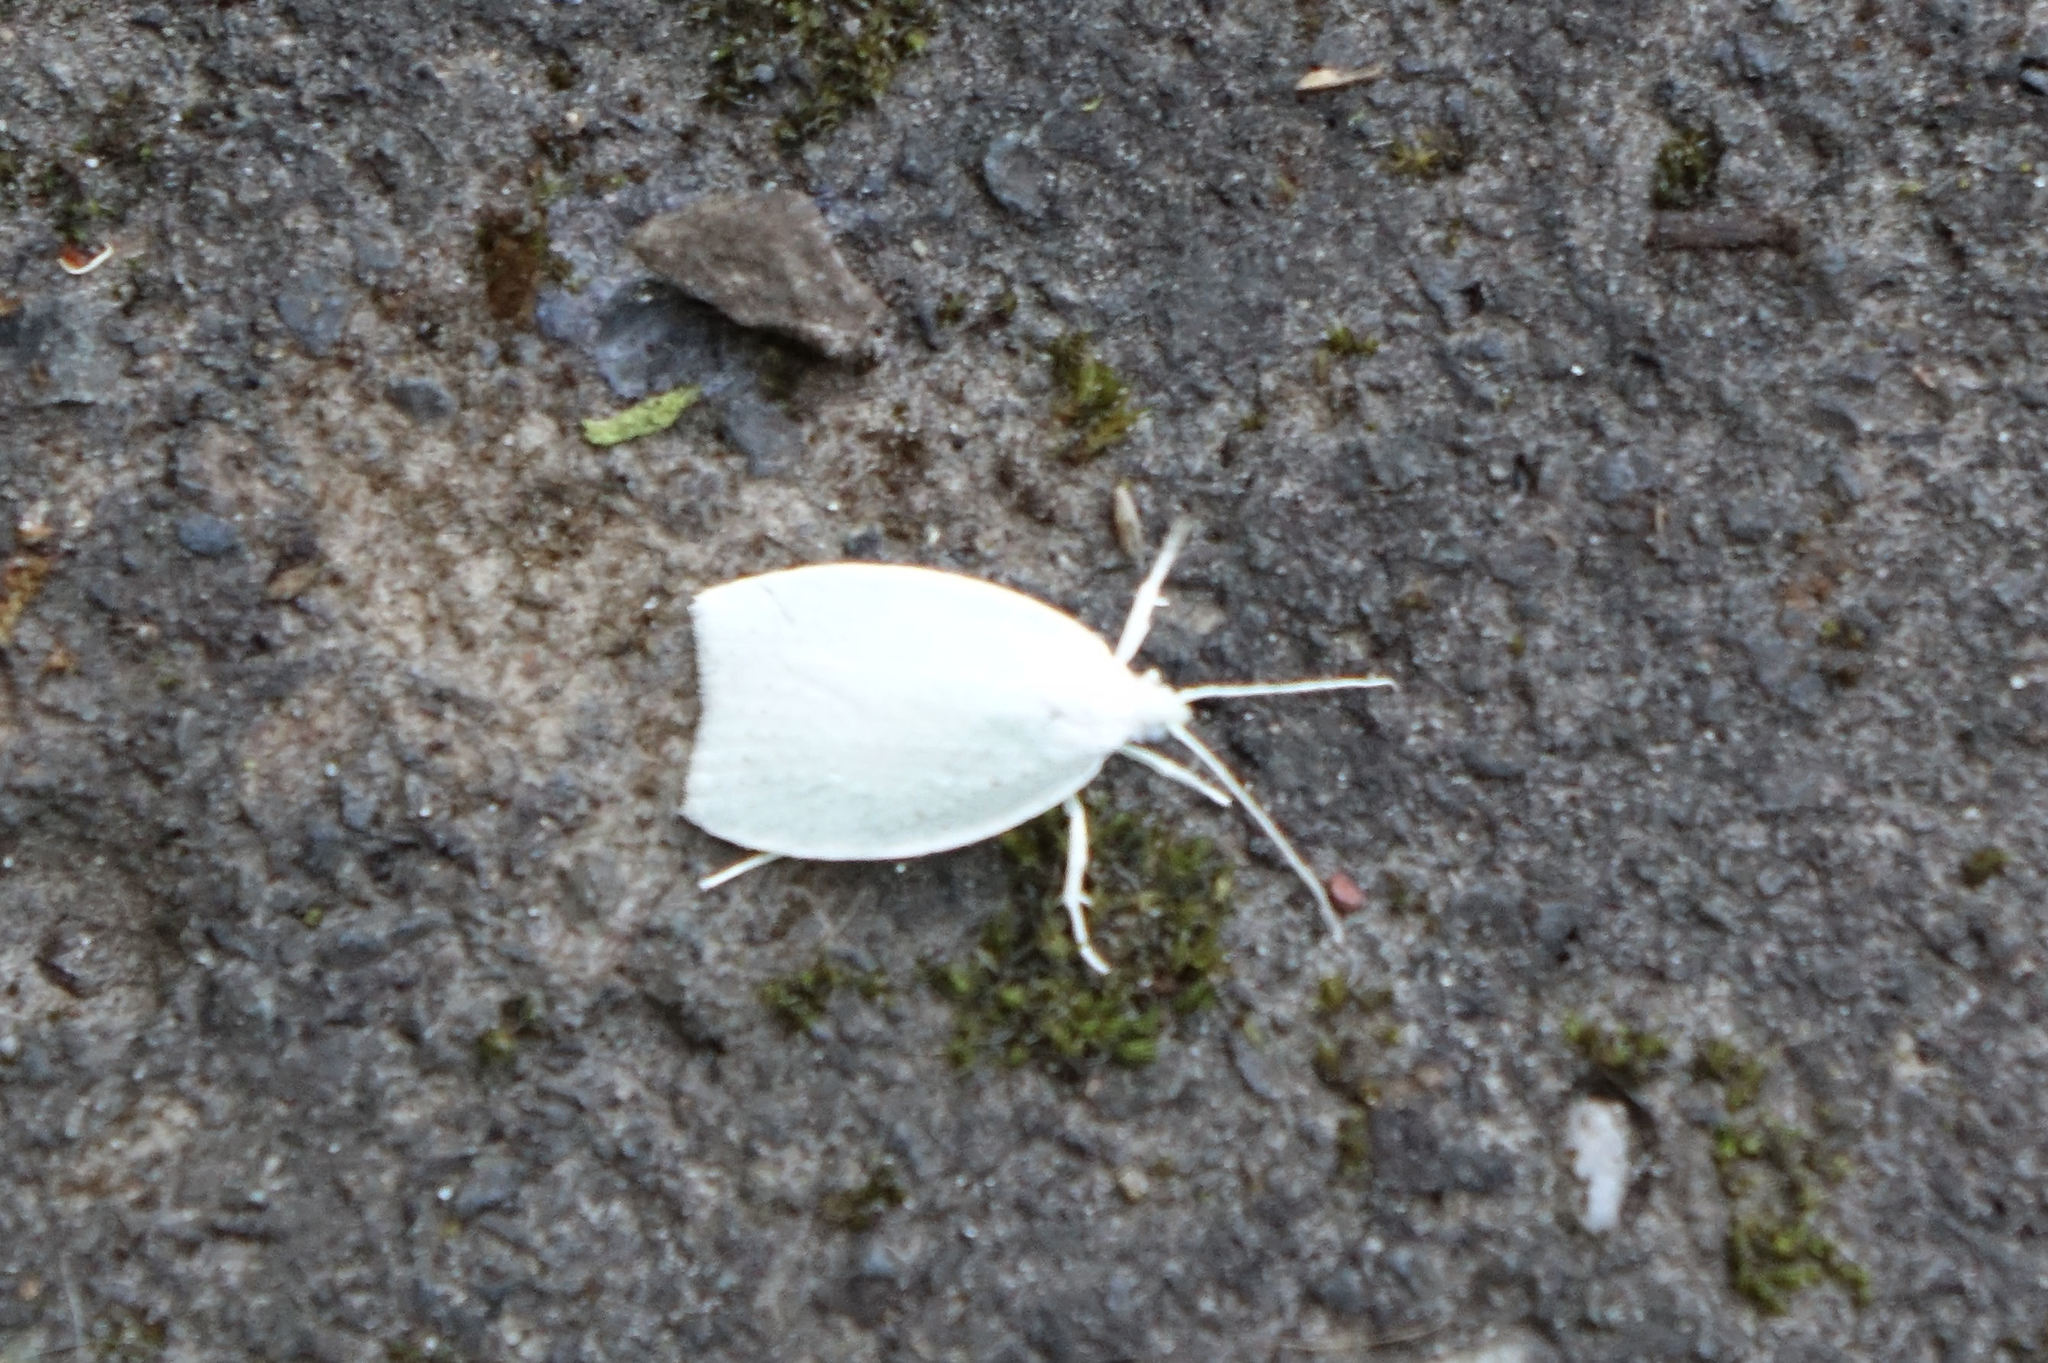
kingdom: Animalia
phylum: Arthropoda
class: Insecta
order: Lepidoptera
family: Oecophoridae
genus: Nymphostola
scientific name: Nymphostola galactina
